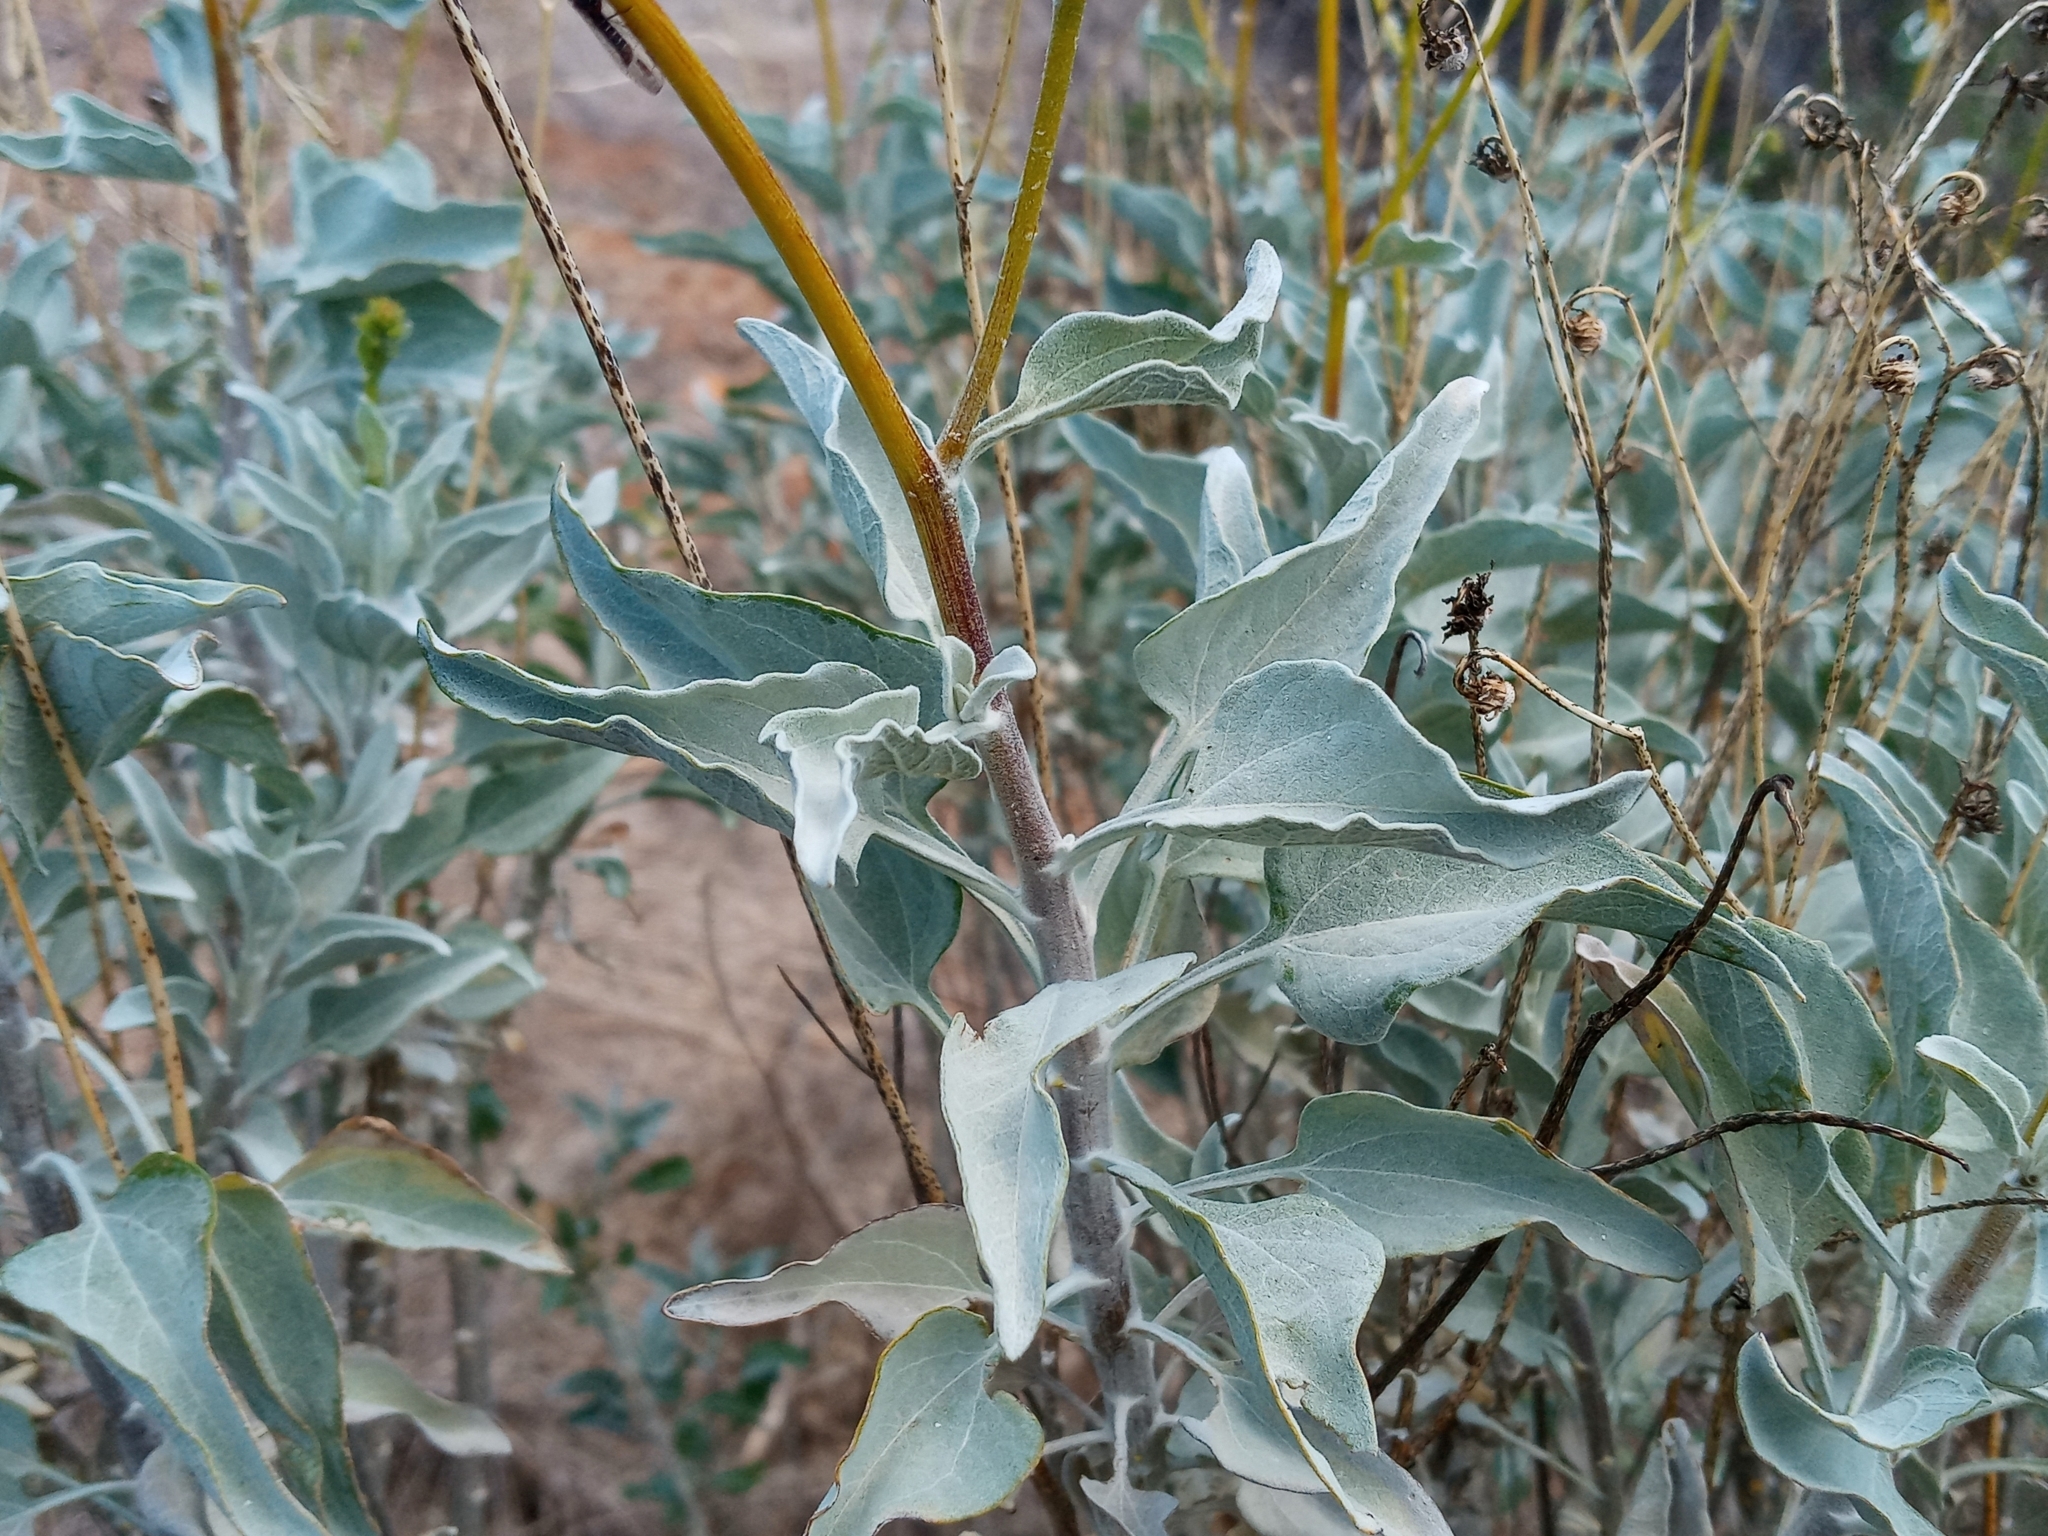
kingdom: Plantae
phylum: Tracheophyta
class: Magnoliopsida
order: Asterales
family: Asteraceae
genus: Encelia
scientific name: Encelia farinosa
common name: Brittlebush
